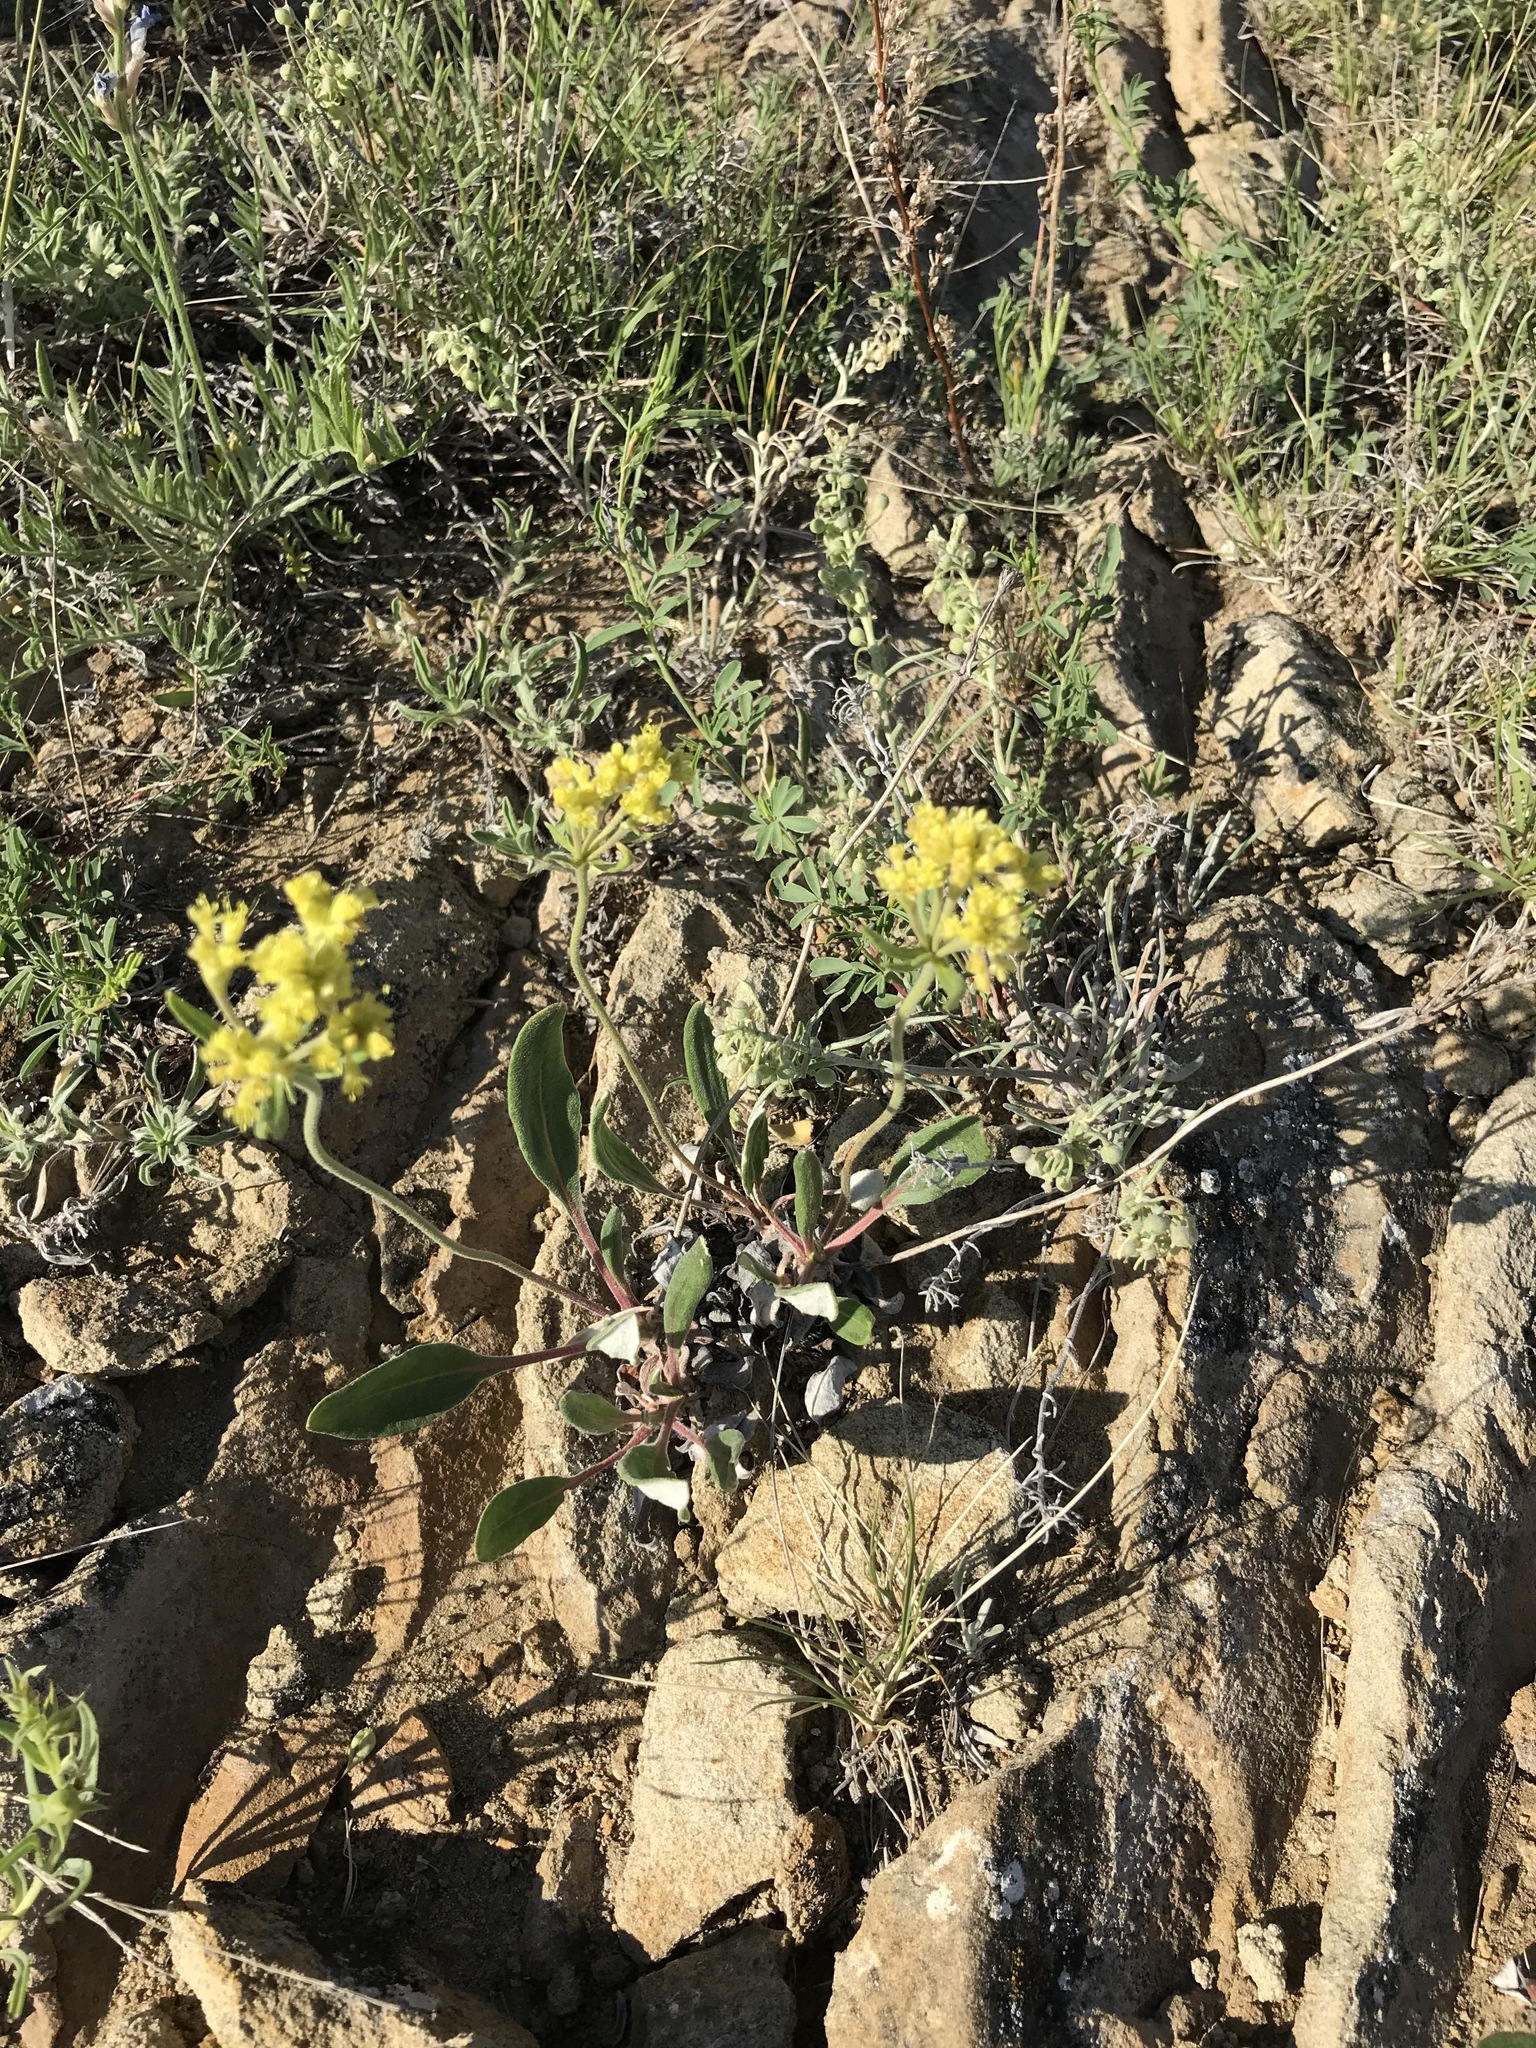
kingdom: Plantae
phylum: Tracheophyta
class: Magnoliopsida
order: Caryophyllales
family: Polygonaceae
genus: Eriogonum
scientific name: Eriogonum flavum
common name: Alpine golden wild buckwheat
